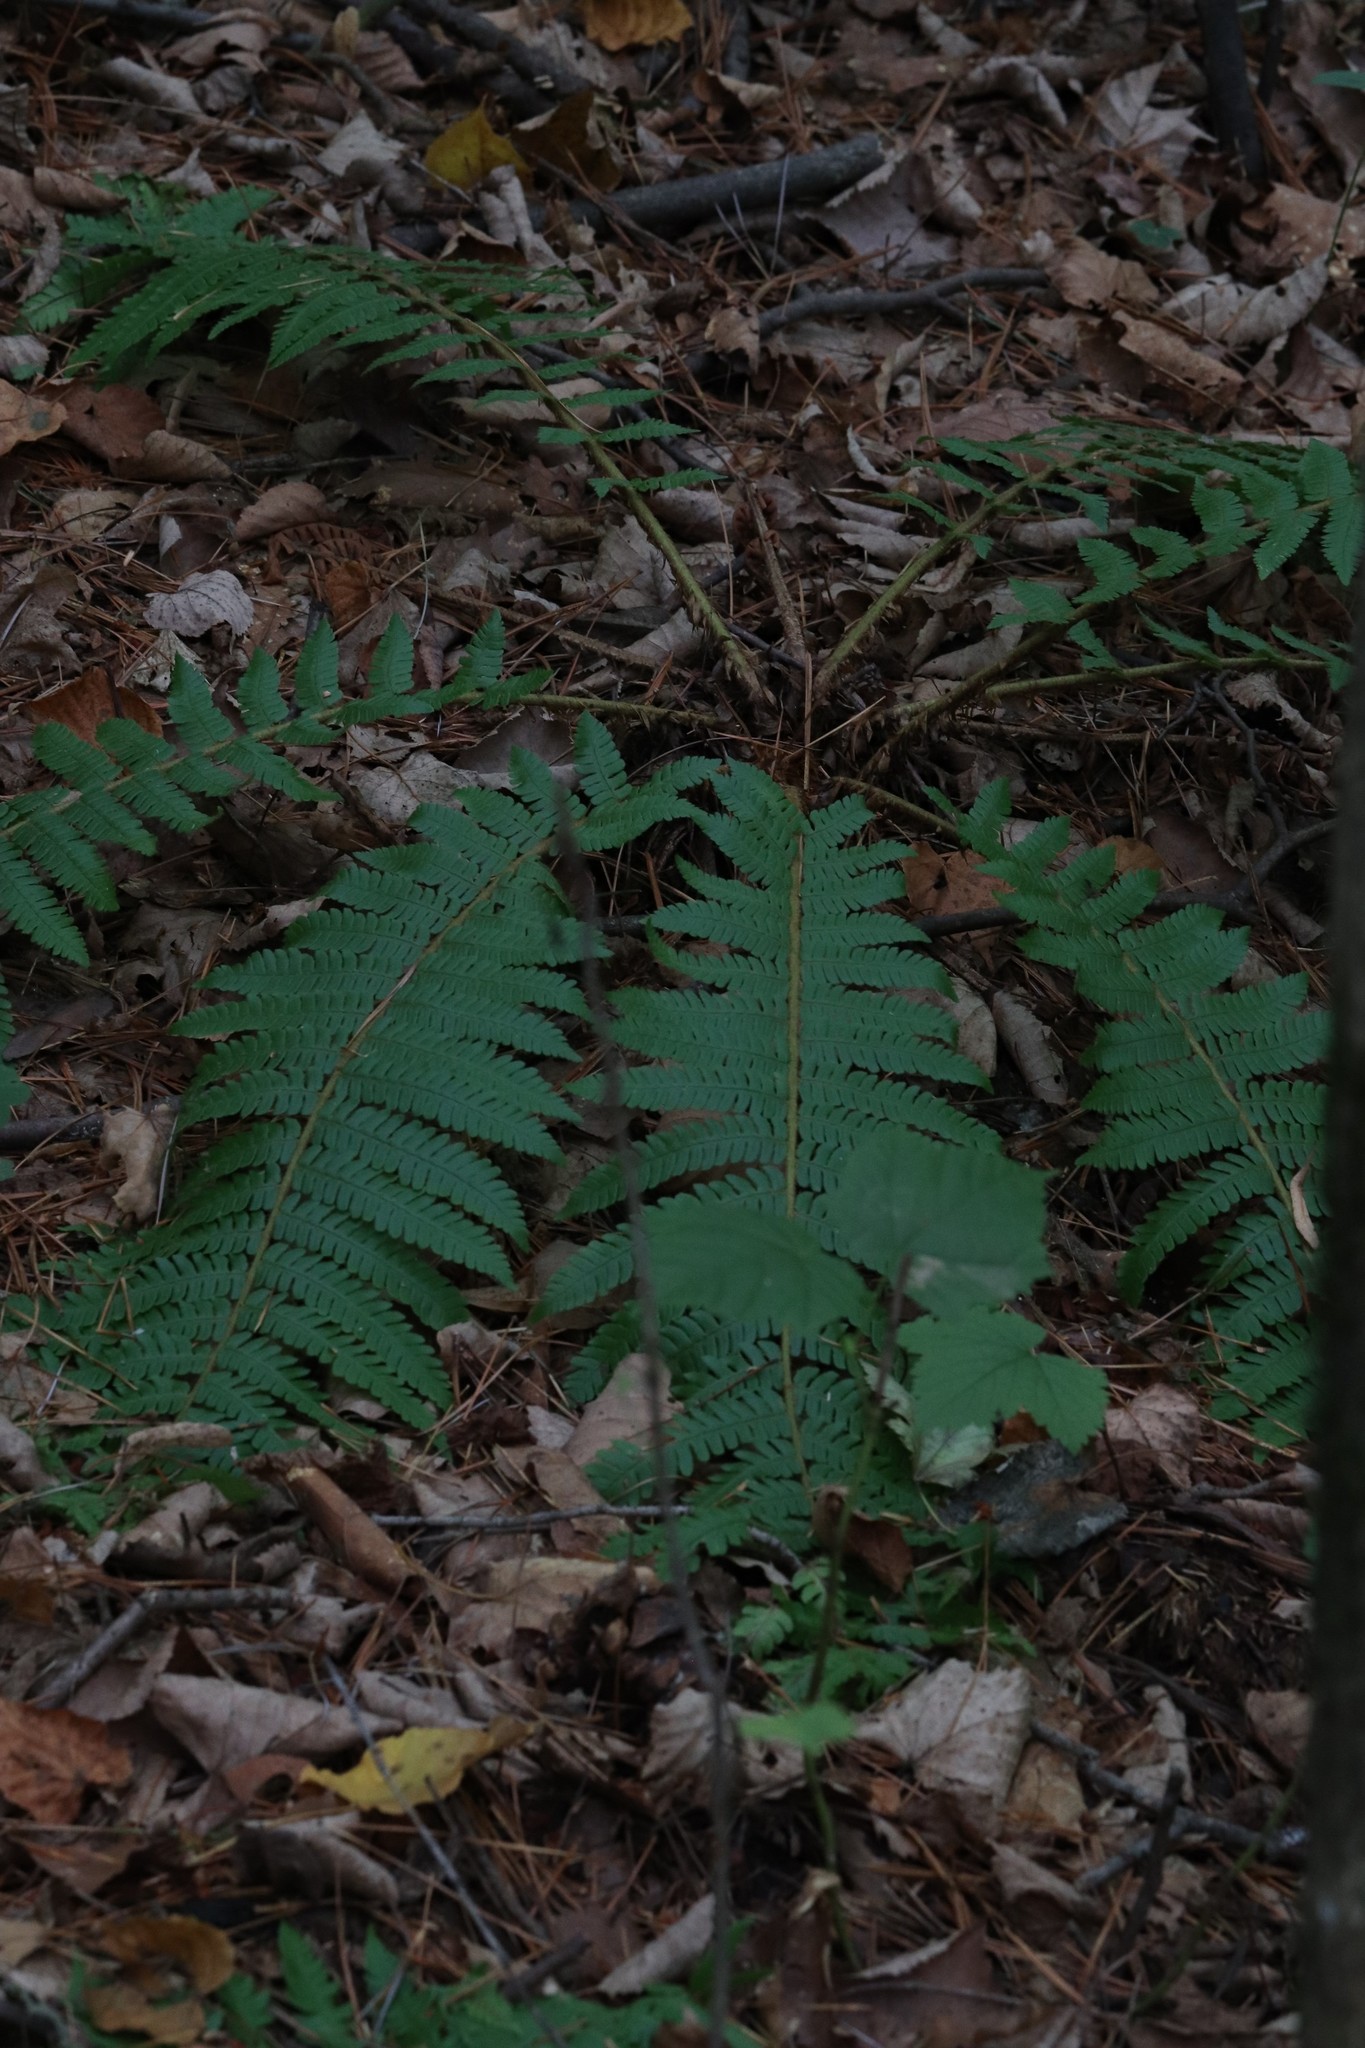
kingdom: Plantae
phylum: Tracheophyta
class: Polypodiopsida
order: Polypodiales
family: Dryopteridaceae
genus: Dryopteris
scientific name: Dryopteris crassirhizoma
